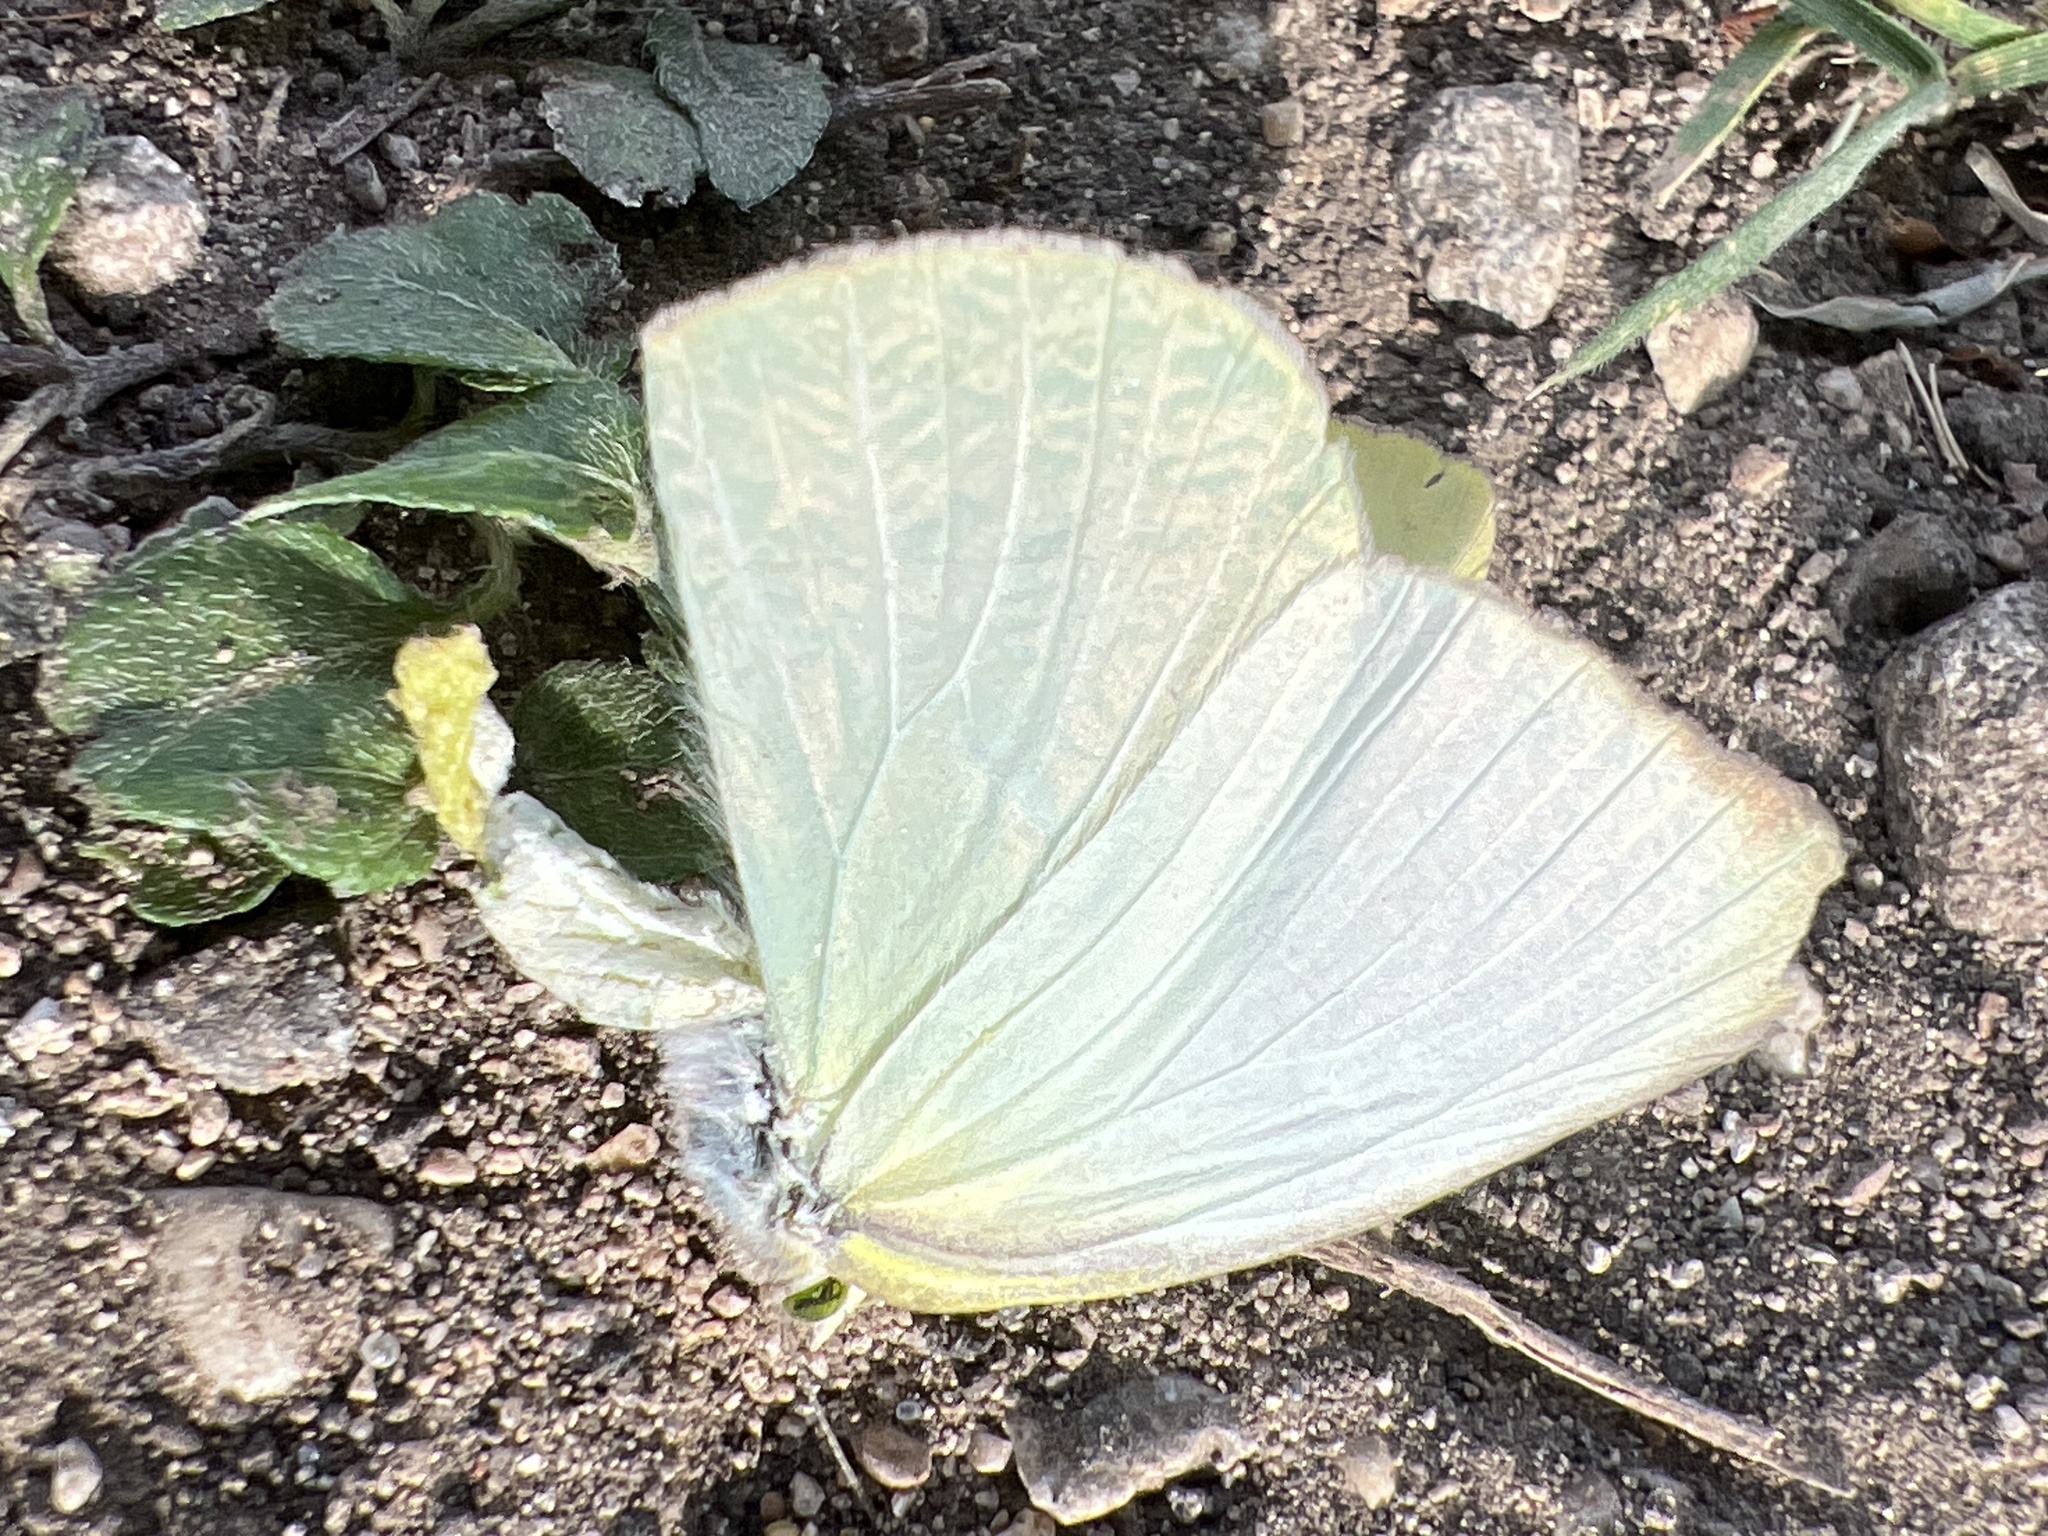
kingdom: Animalia
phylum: Arthropoda
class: Insecta
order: Lepidoptera
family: Pieridae
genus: Kricogonia
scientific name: Kricogonia lyside
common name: Guayacan sulphur,
